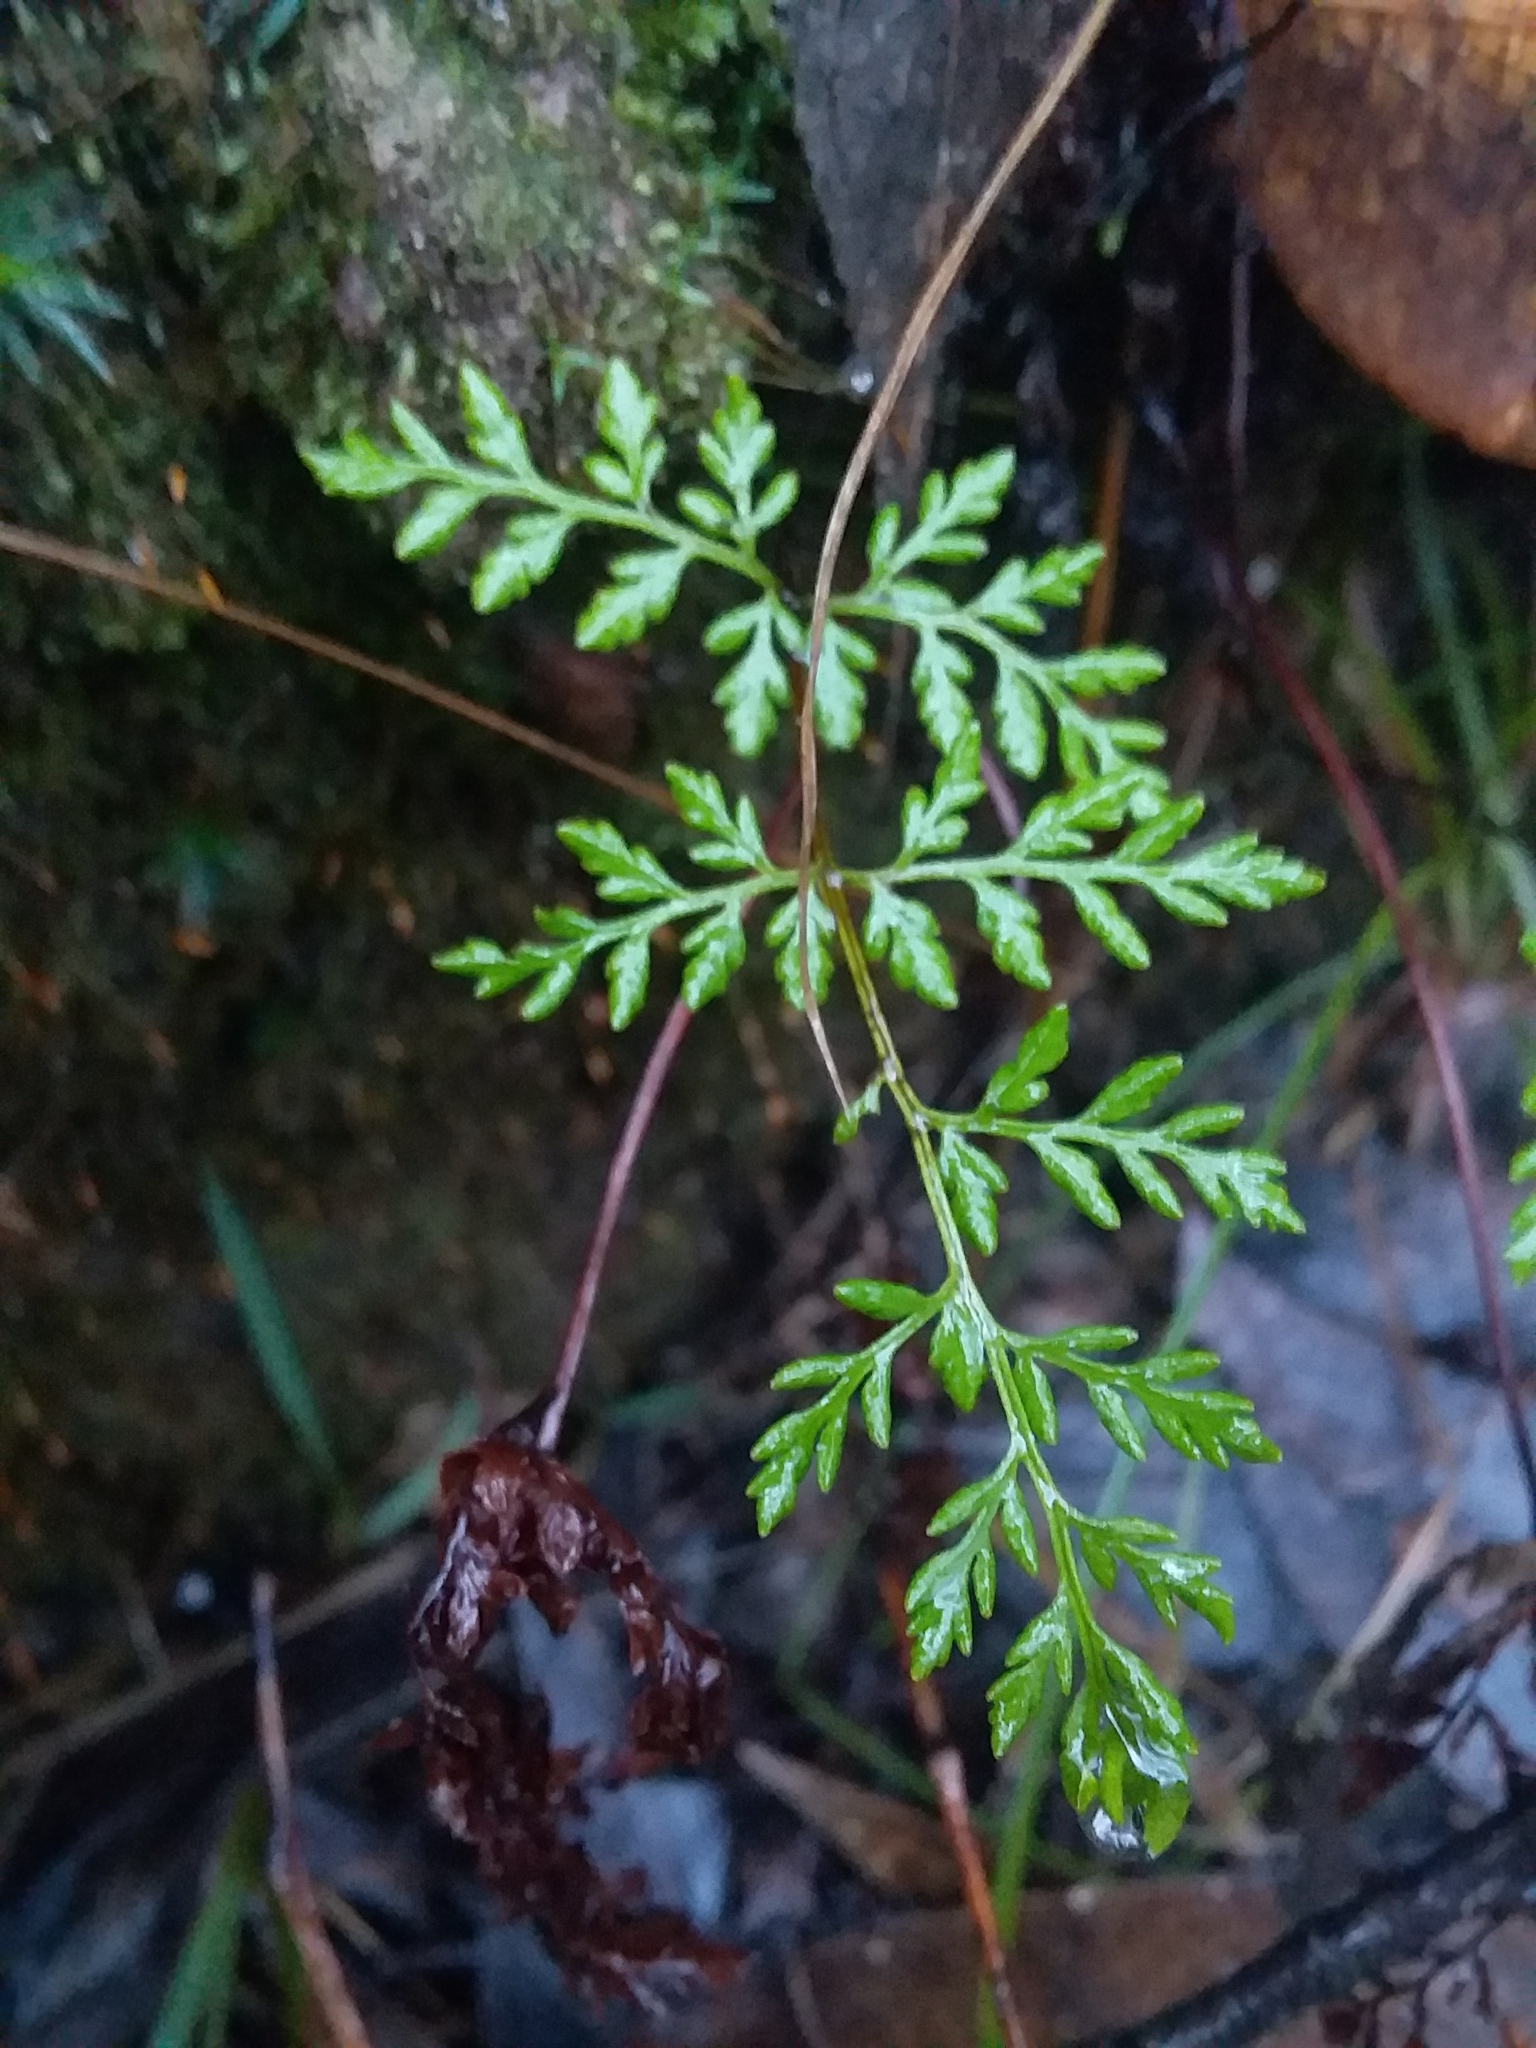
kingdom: Plantae
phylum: Tracheophyta
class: Polypodiopsida
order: Polypodiales
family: Pteridaceae
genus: Cheilanthes
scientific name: Cheilanthes austrotenuifolia
